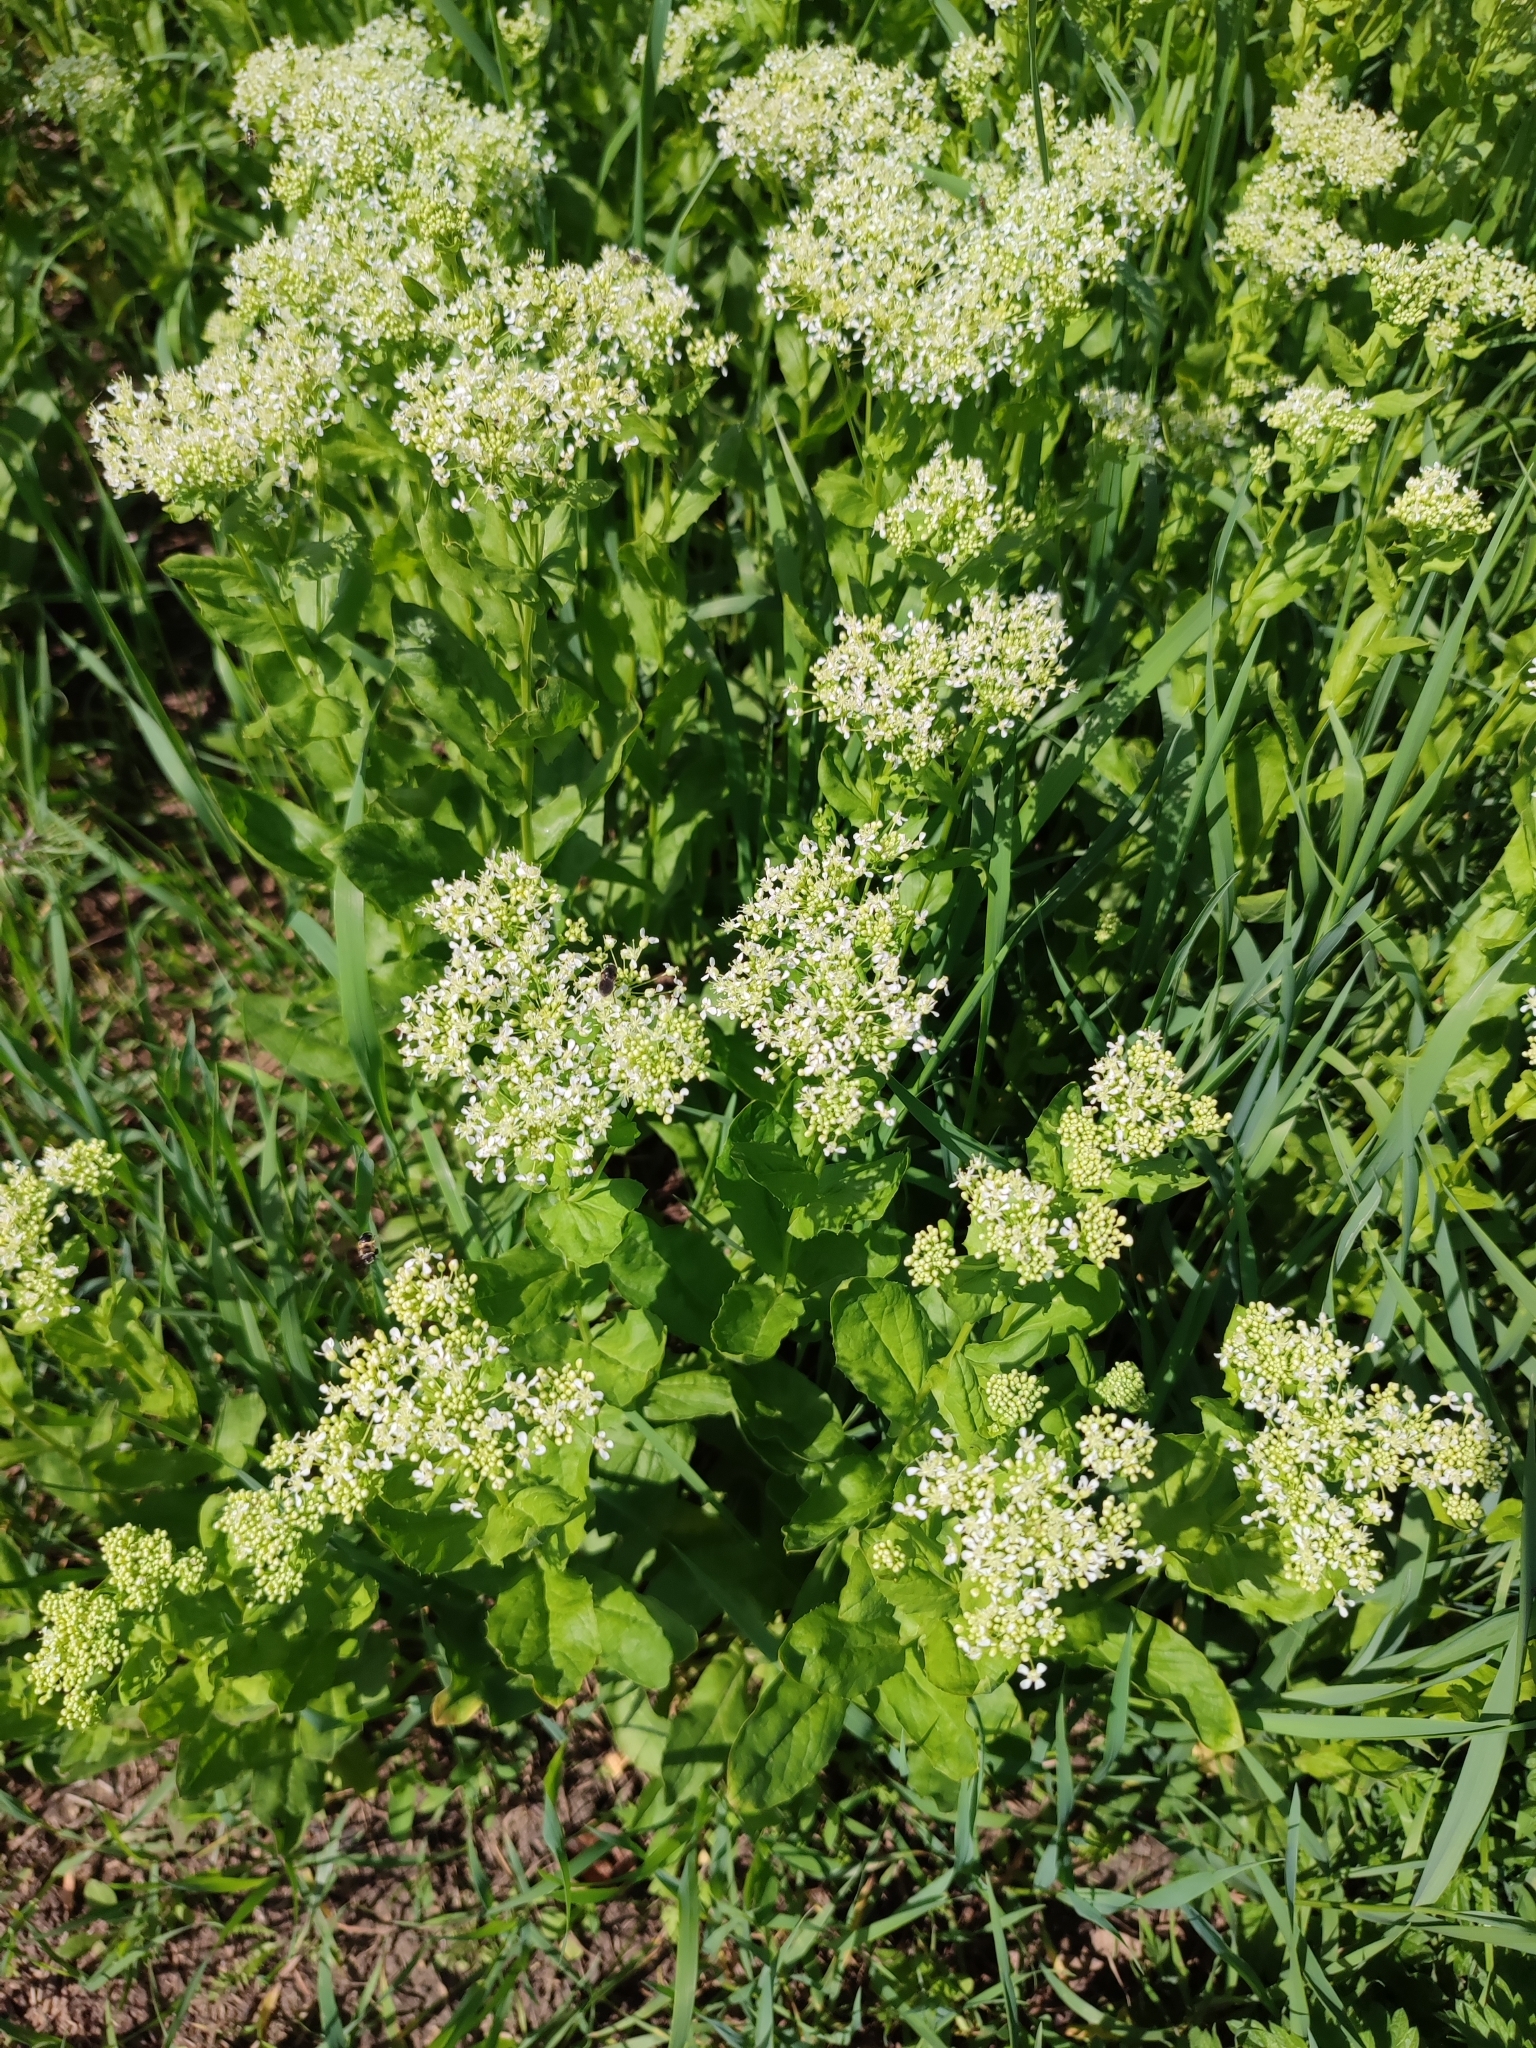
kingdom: Plantae
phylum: Tracheophyta
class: Magnoliopsida
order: Brassicales
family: Brassicaceae
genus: Lepidium
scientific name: Lepidium draba
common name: Hoary cress
